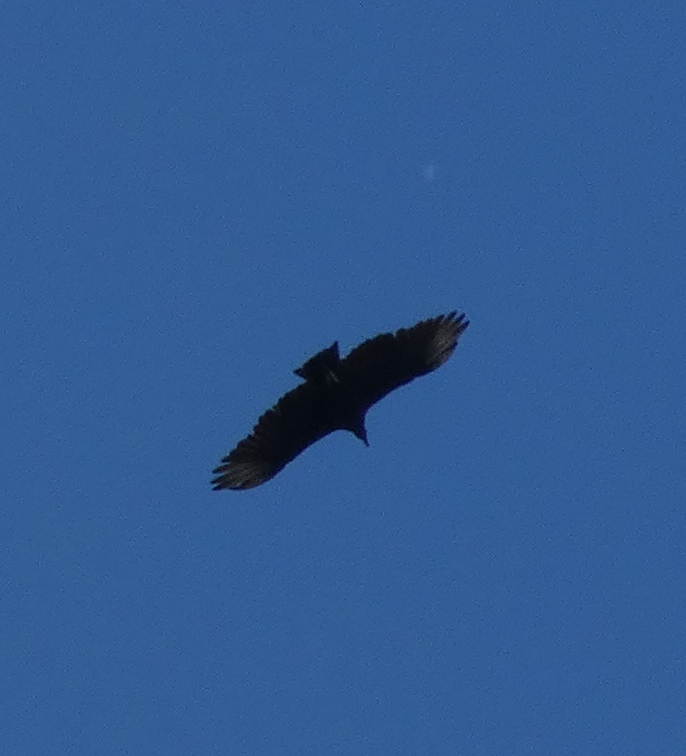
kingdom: Animalia
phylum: Chordata
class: Aves
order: Accipitriformes
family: Cathartidae
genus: Coragyps
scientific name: Coragyps atratus
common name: Black vulture
